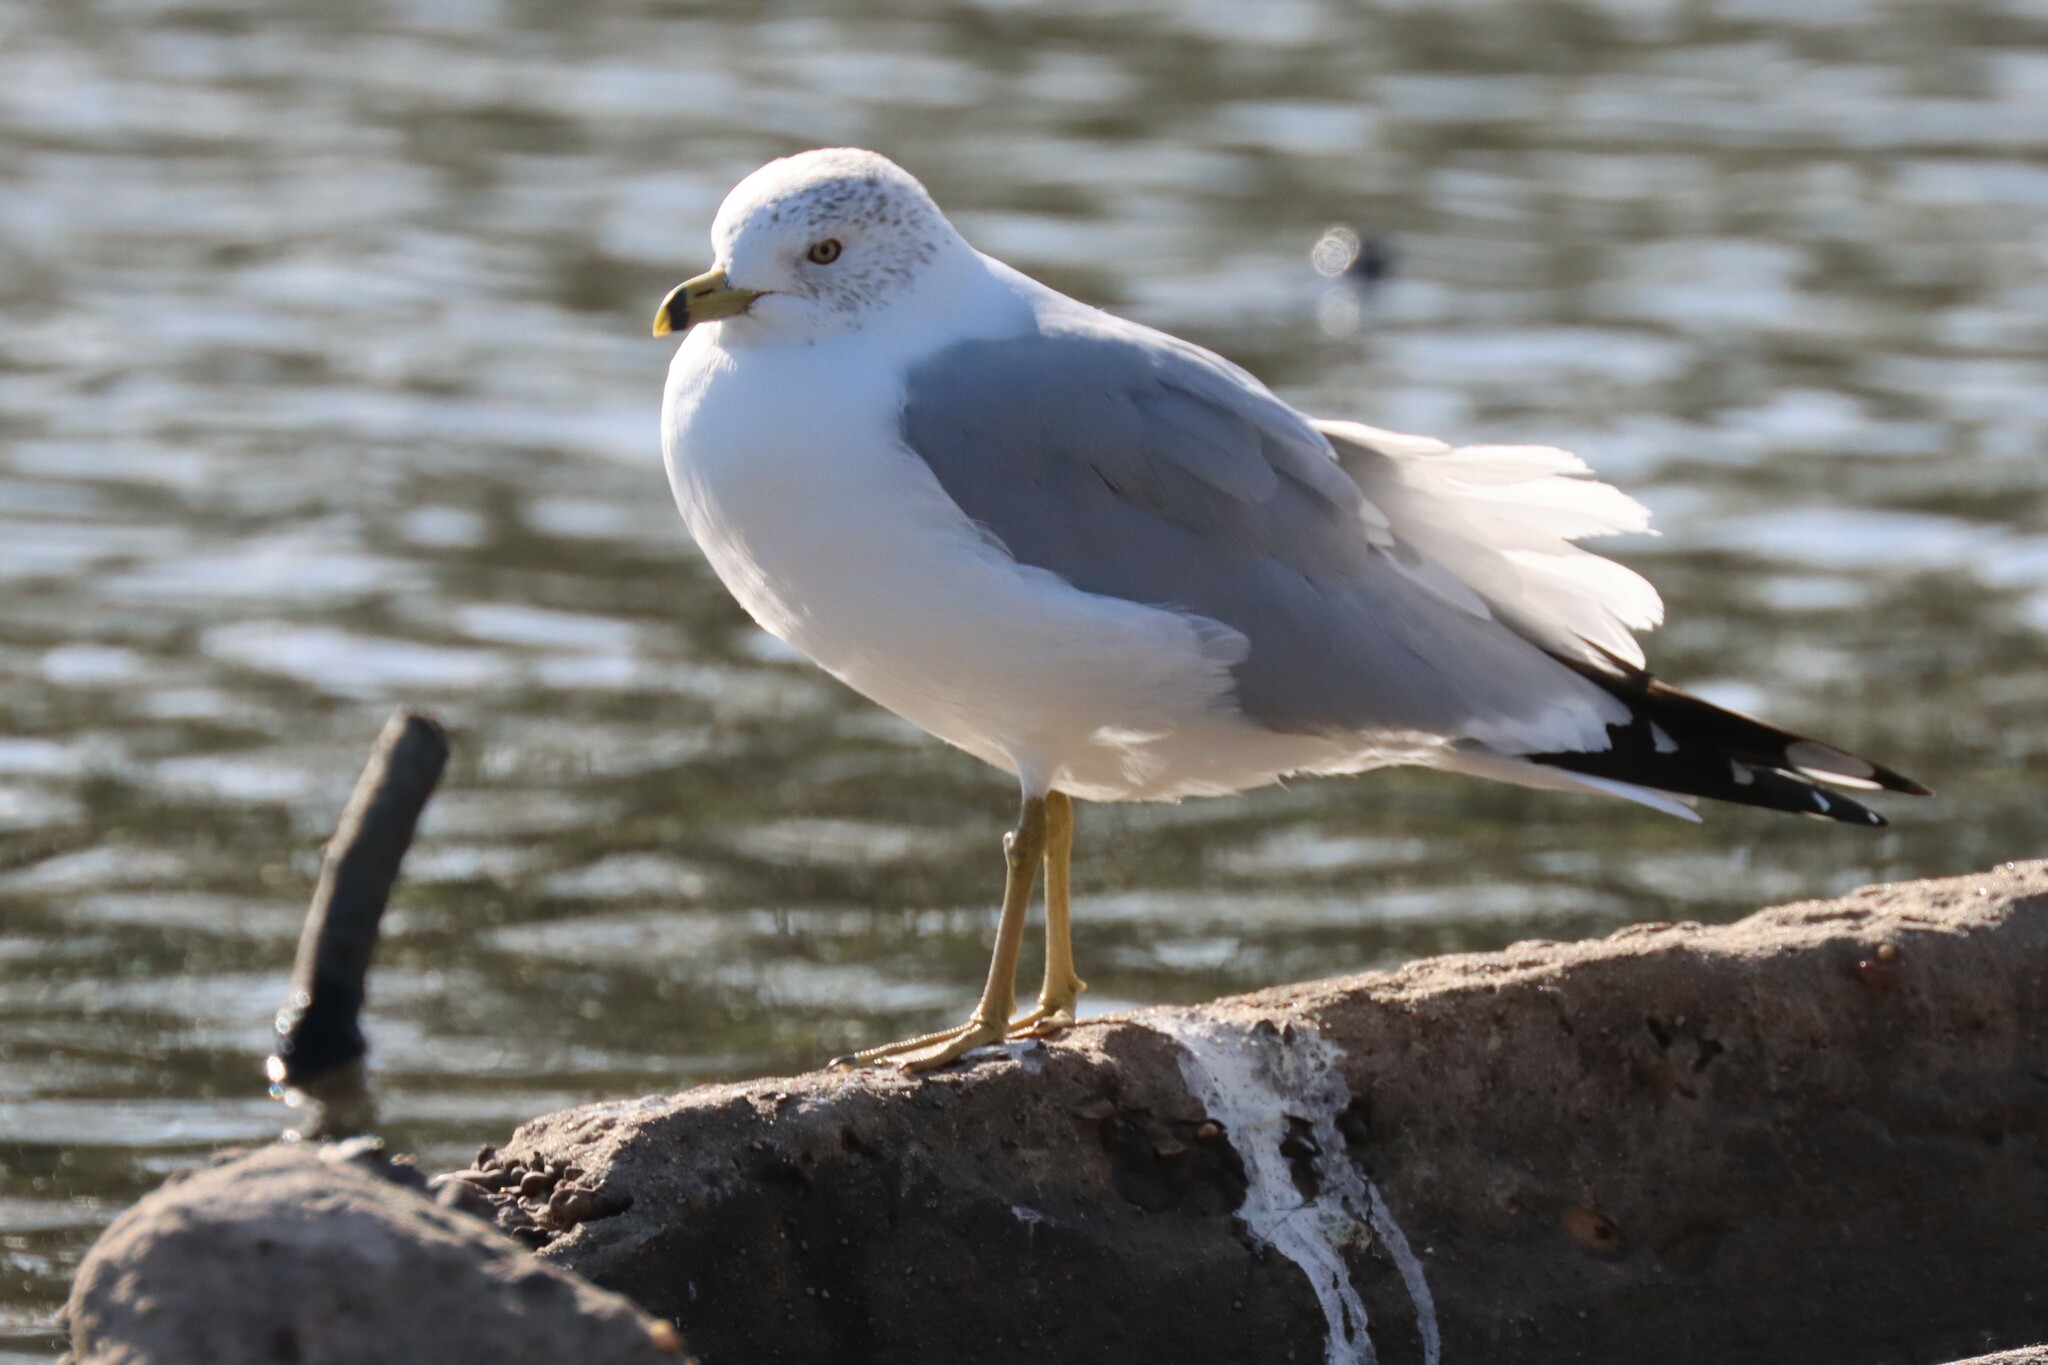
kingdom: Animalia
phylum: Chordata
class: Aves
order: Charadriiformes
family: Laridae
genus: Larus
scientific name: Larus delawarensis
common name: Ring-billed gull
